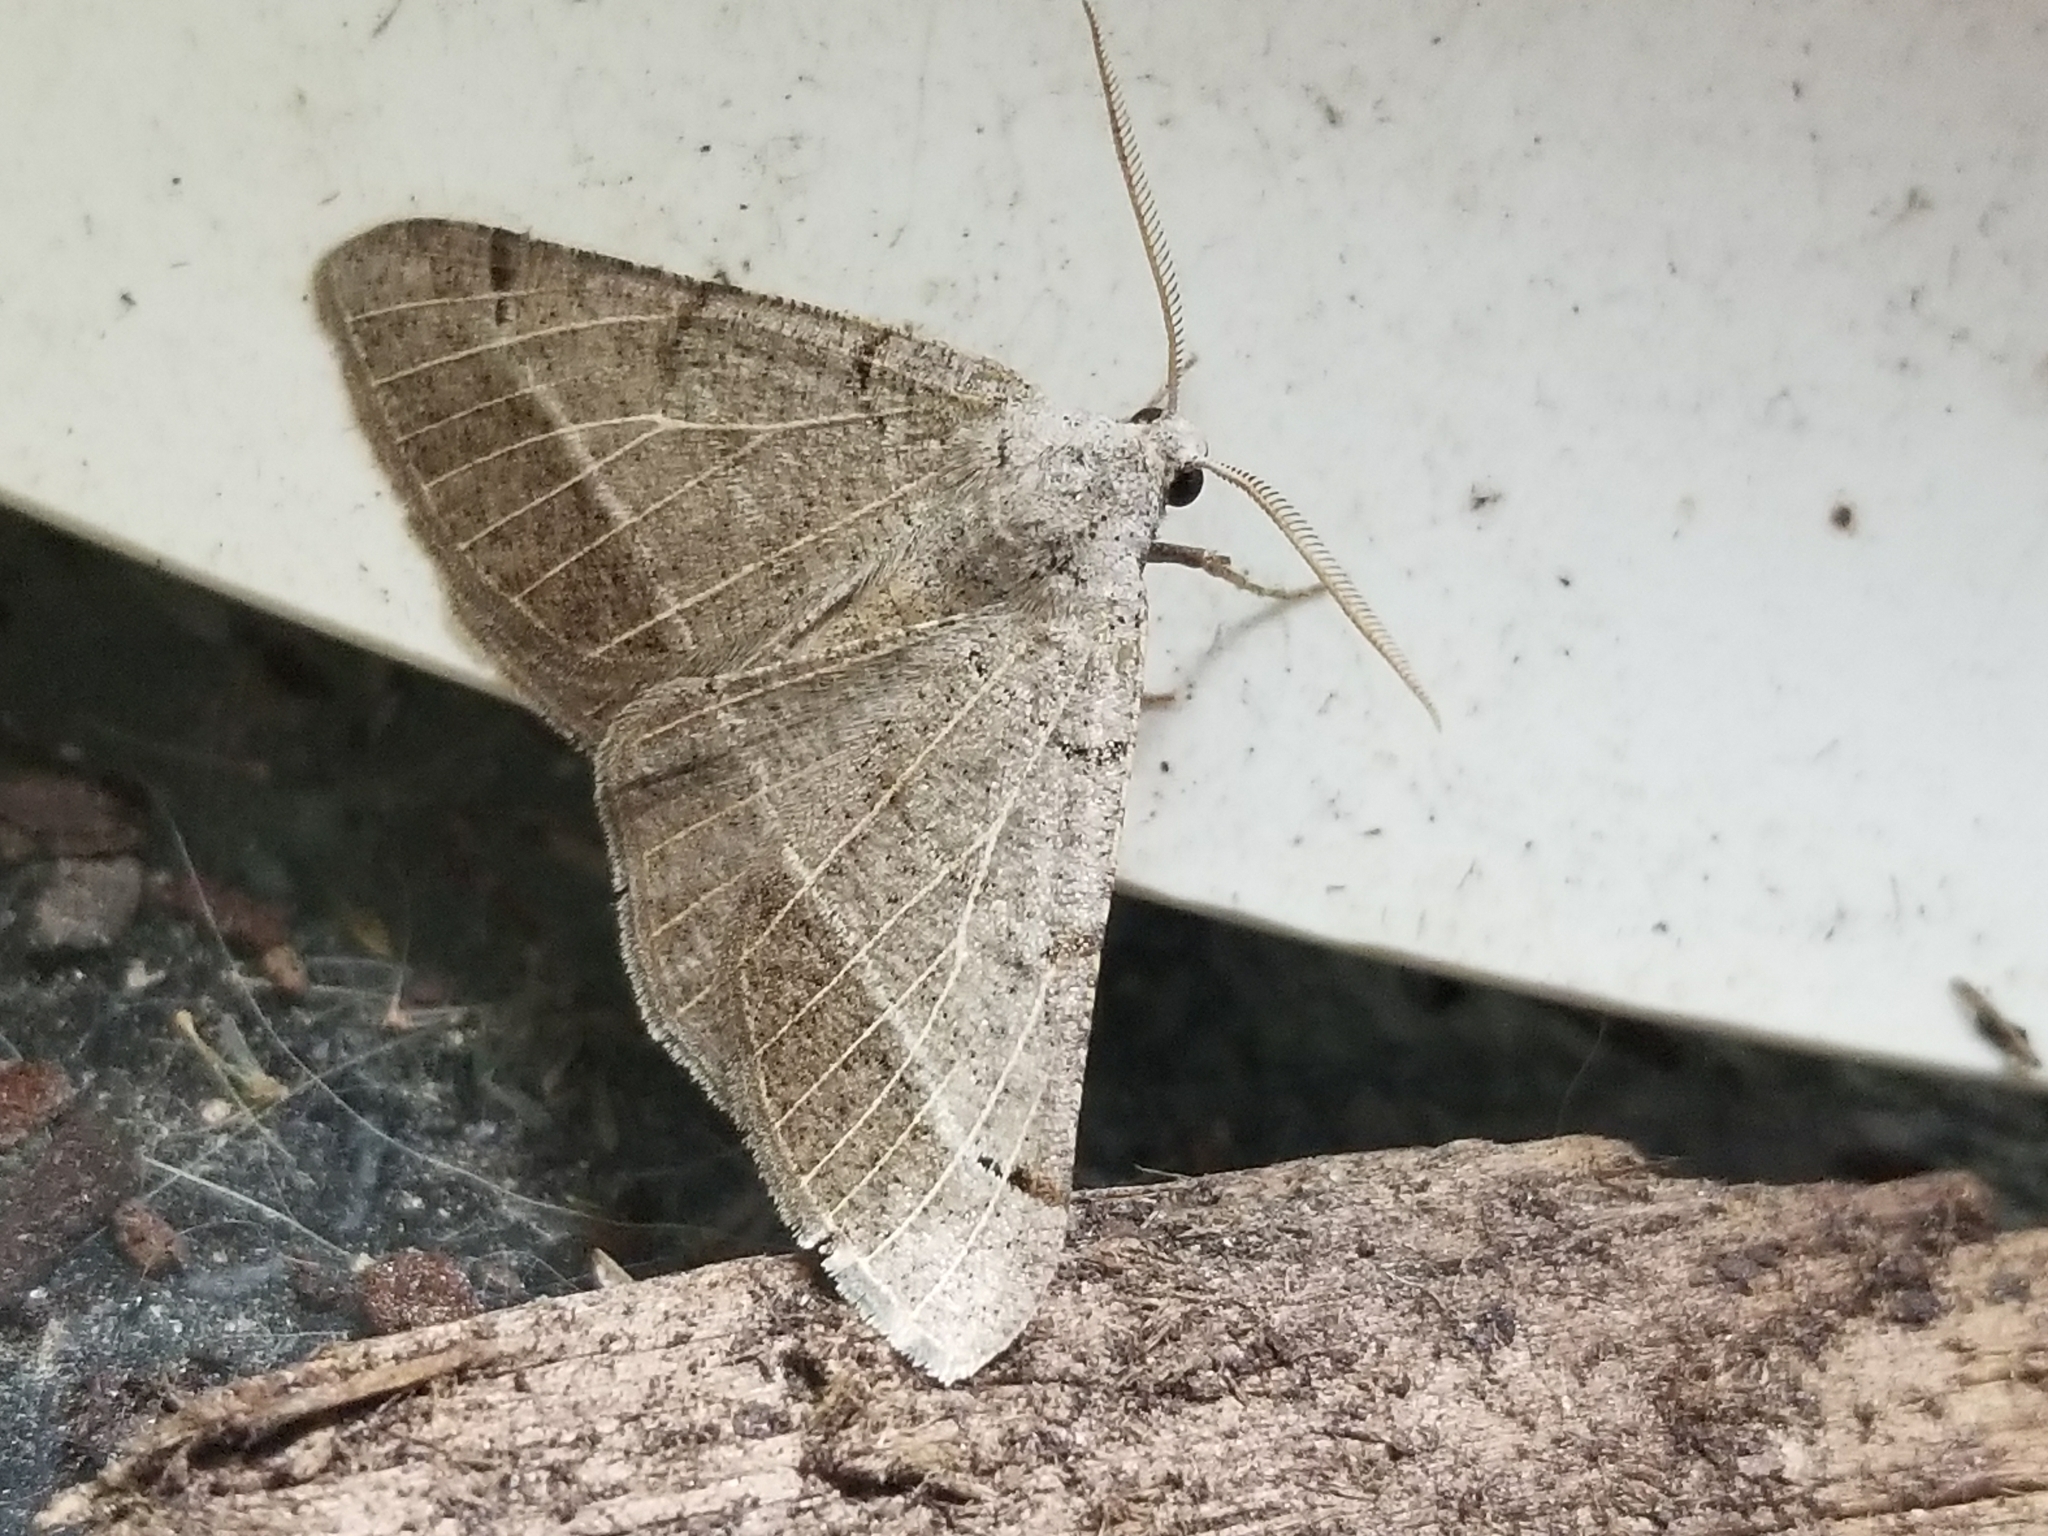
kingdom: Animalia
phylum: Arthropoda
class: Insecta
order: Lepidoptera
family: Geometridae
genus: Isturgia
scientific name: Isturgia dislocaria
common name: Pale-viened enconista
